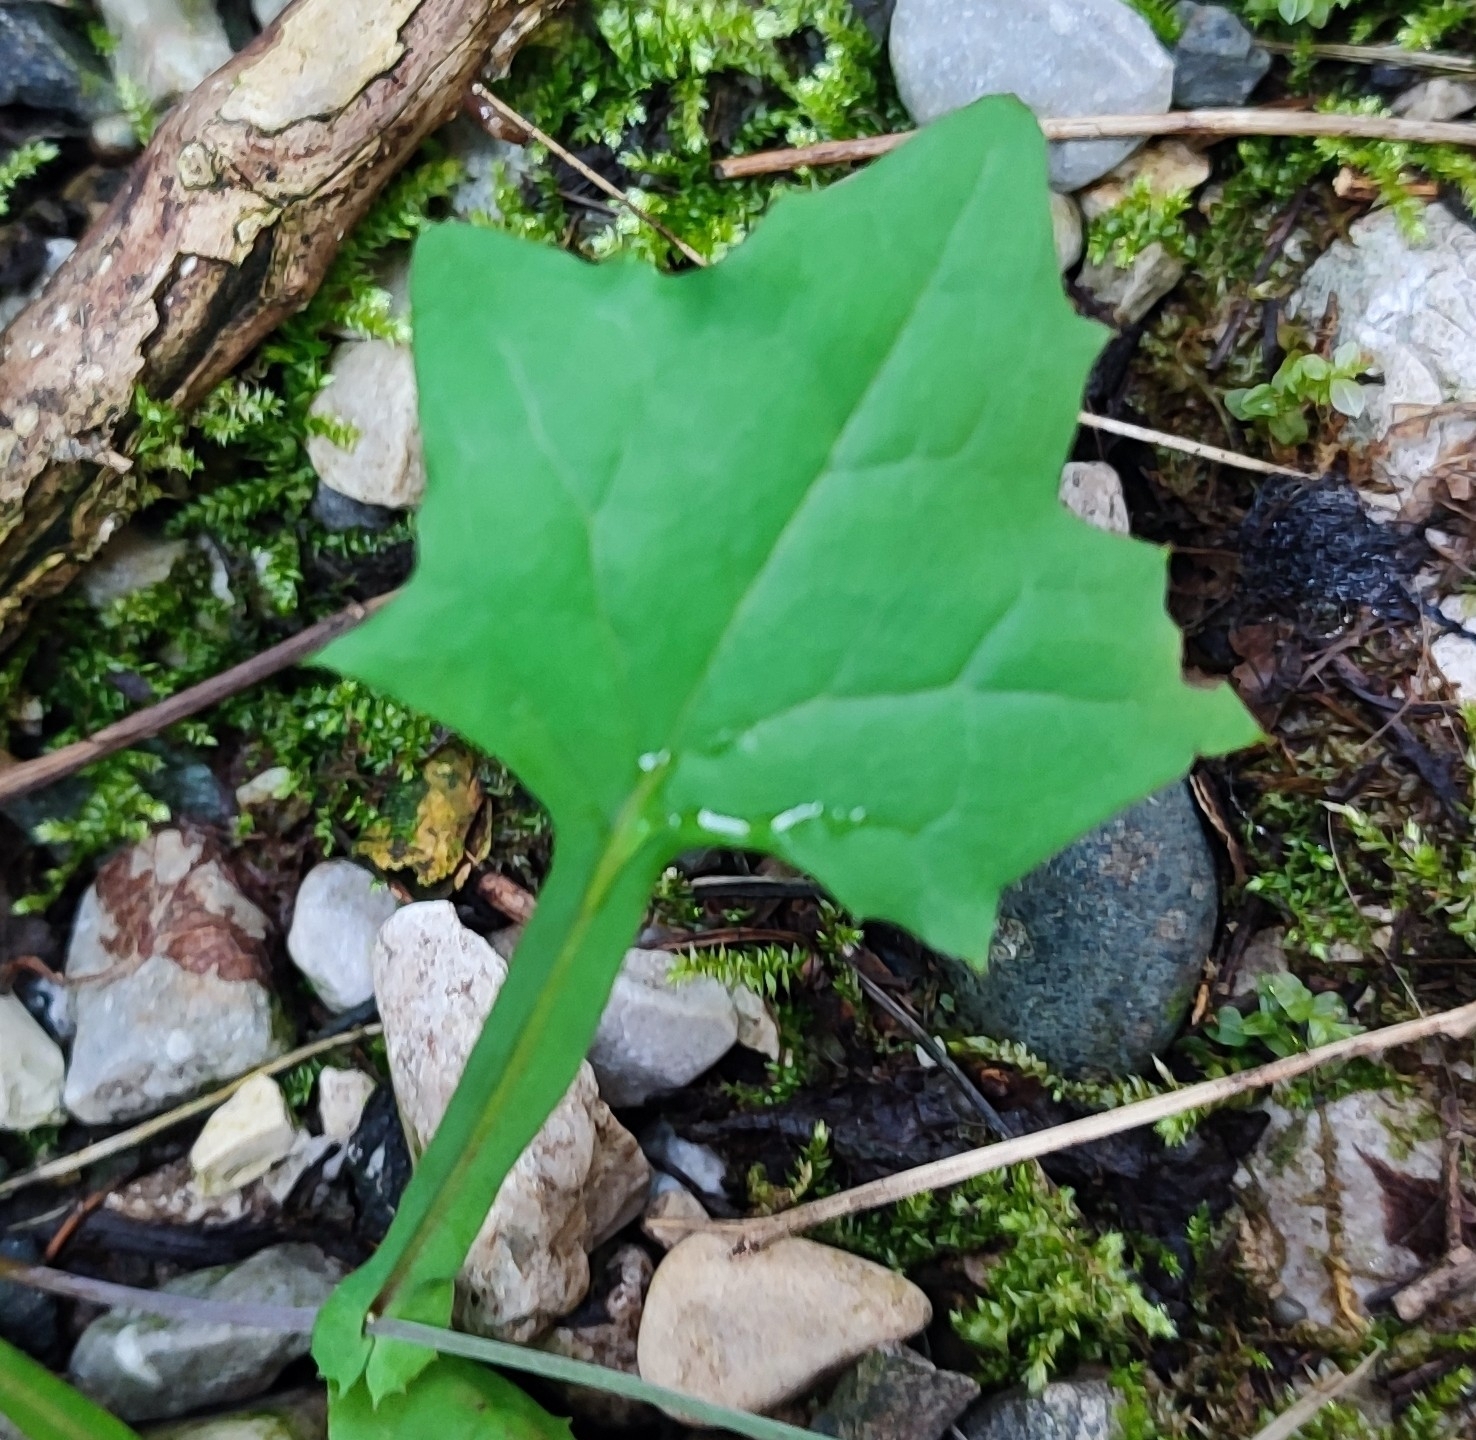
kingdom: Plantae
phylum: Tracheophyta
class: Magnoliopsida
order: Asterales
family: Asteraceae
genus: Mycelis
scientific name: Mycelis muralis
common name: Wall lettuce
